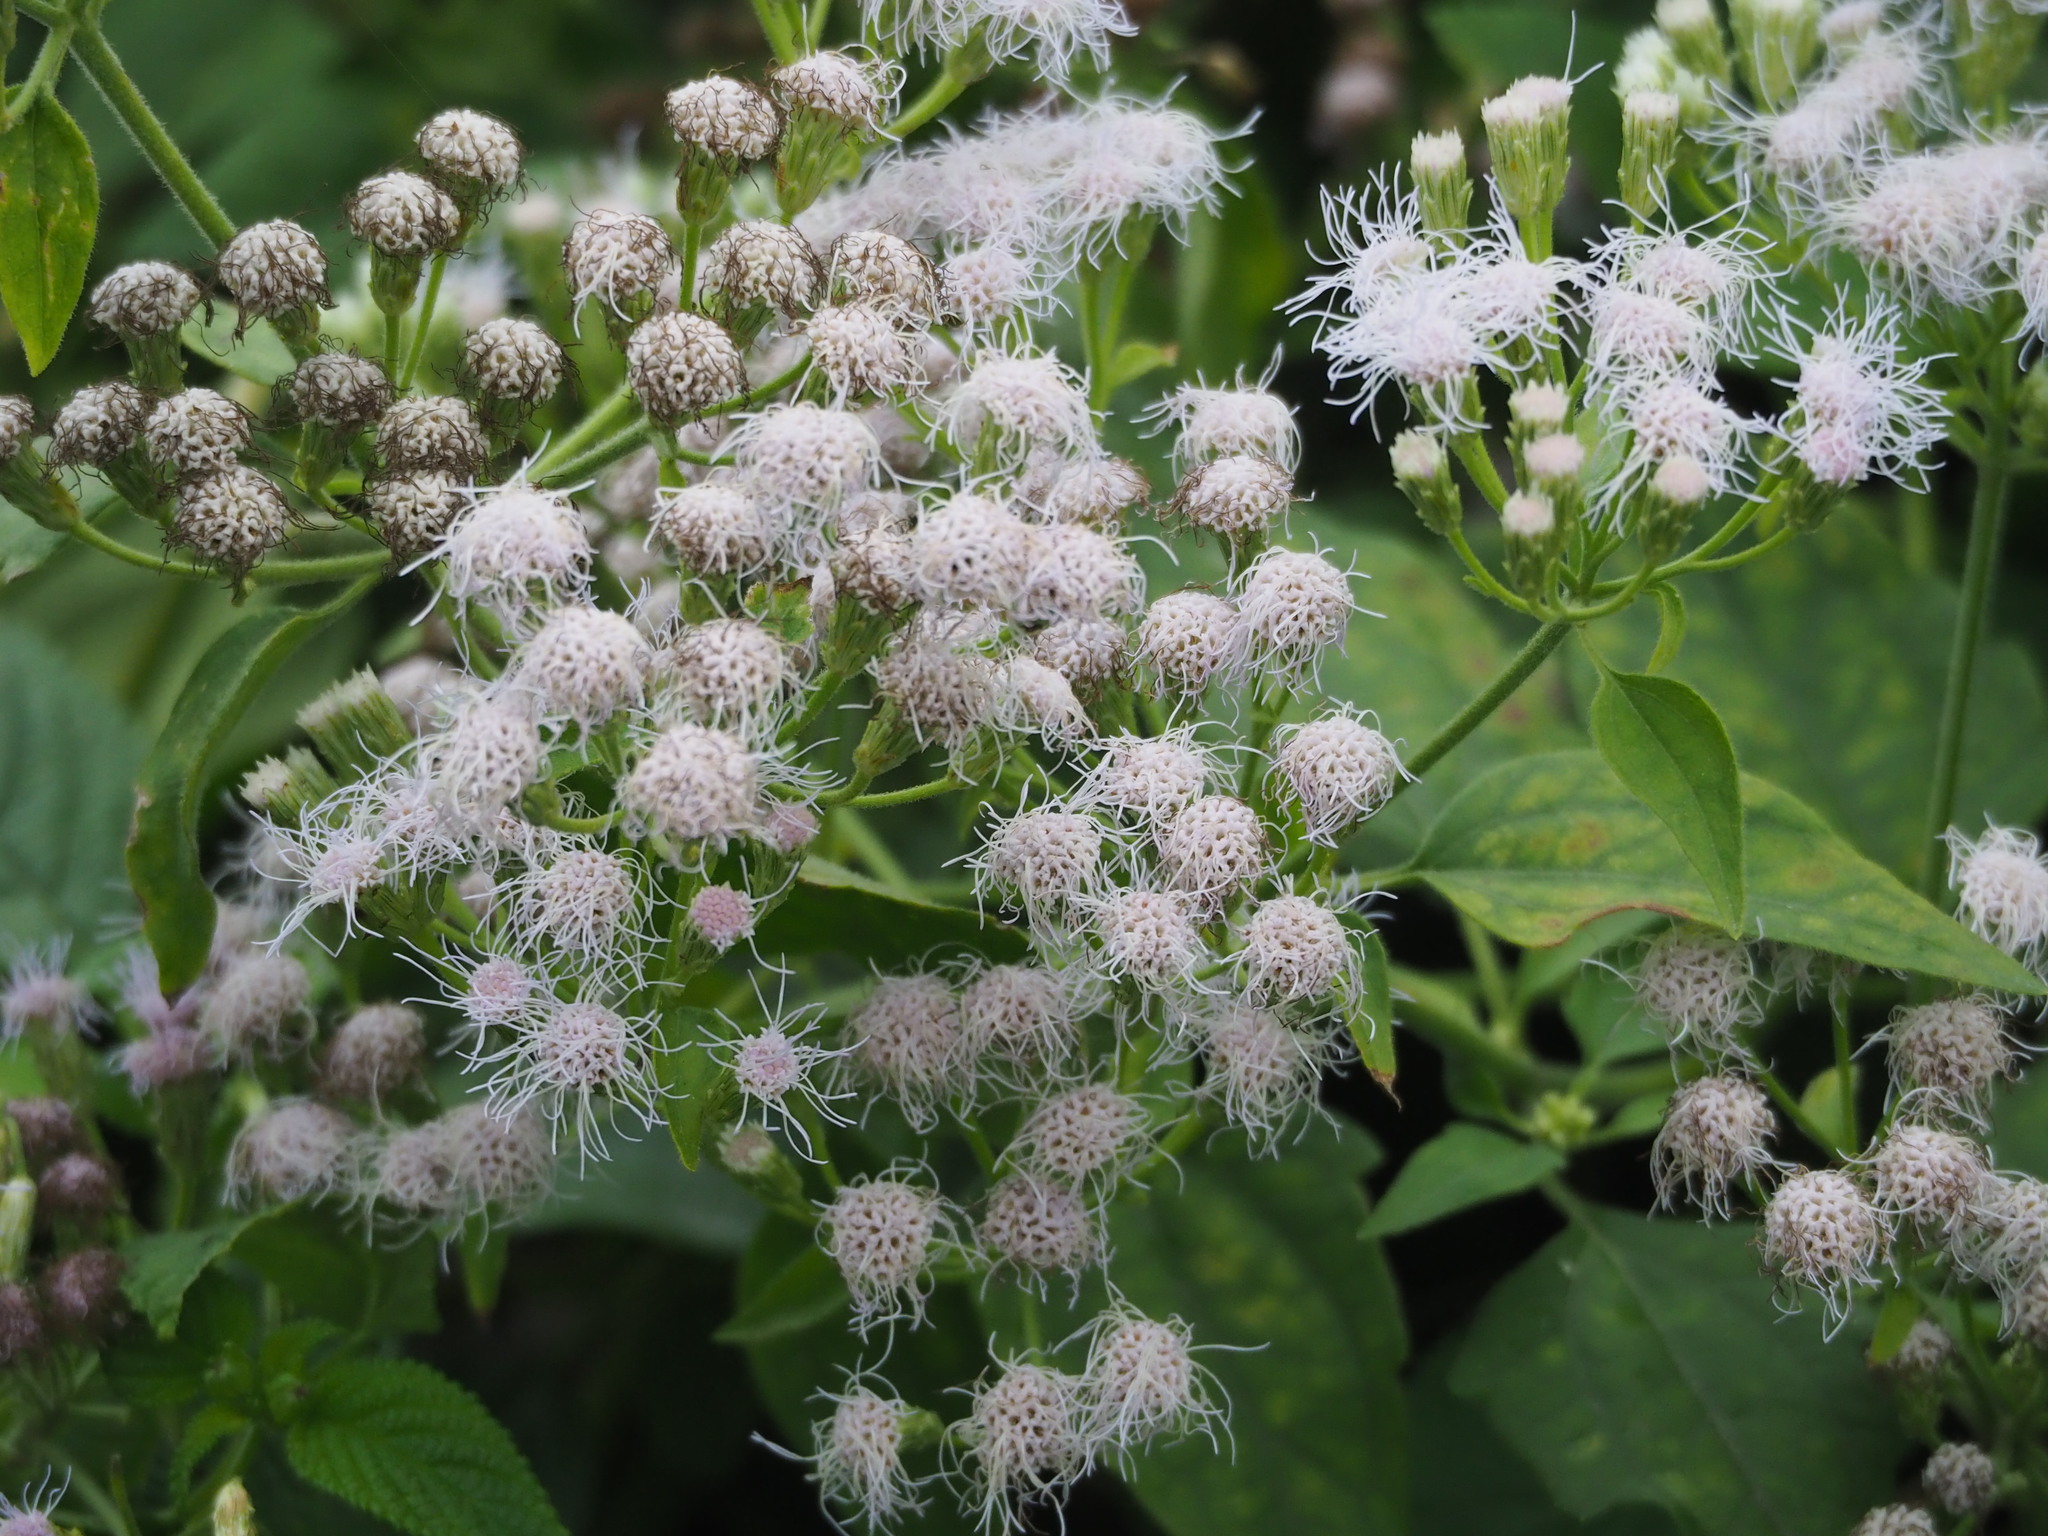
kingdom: Plantae
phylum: Tracheophyta
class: Magnoliopsida
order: Asterales
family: Asteraceae
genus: Chromolaena
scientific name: Chromolaena odorata
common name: Siamweed
